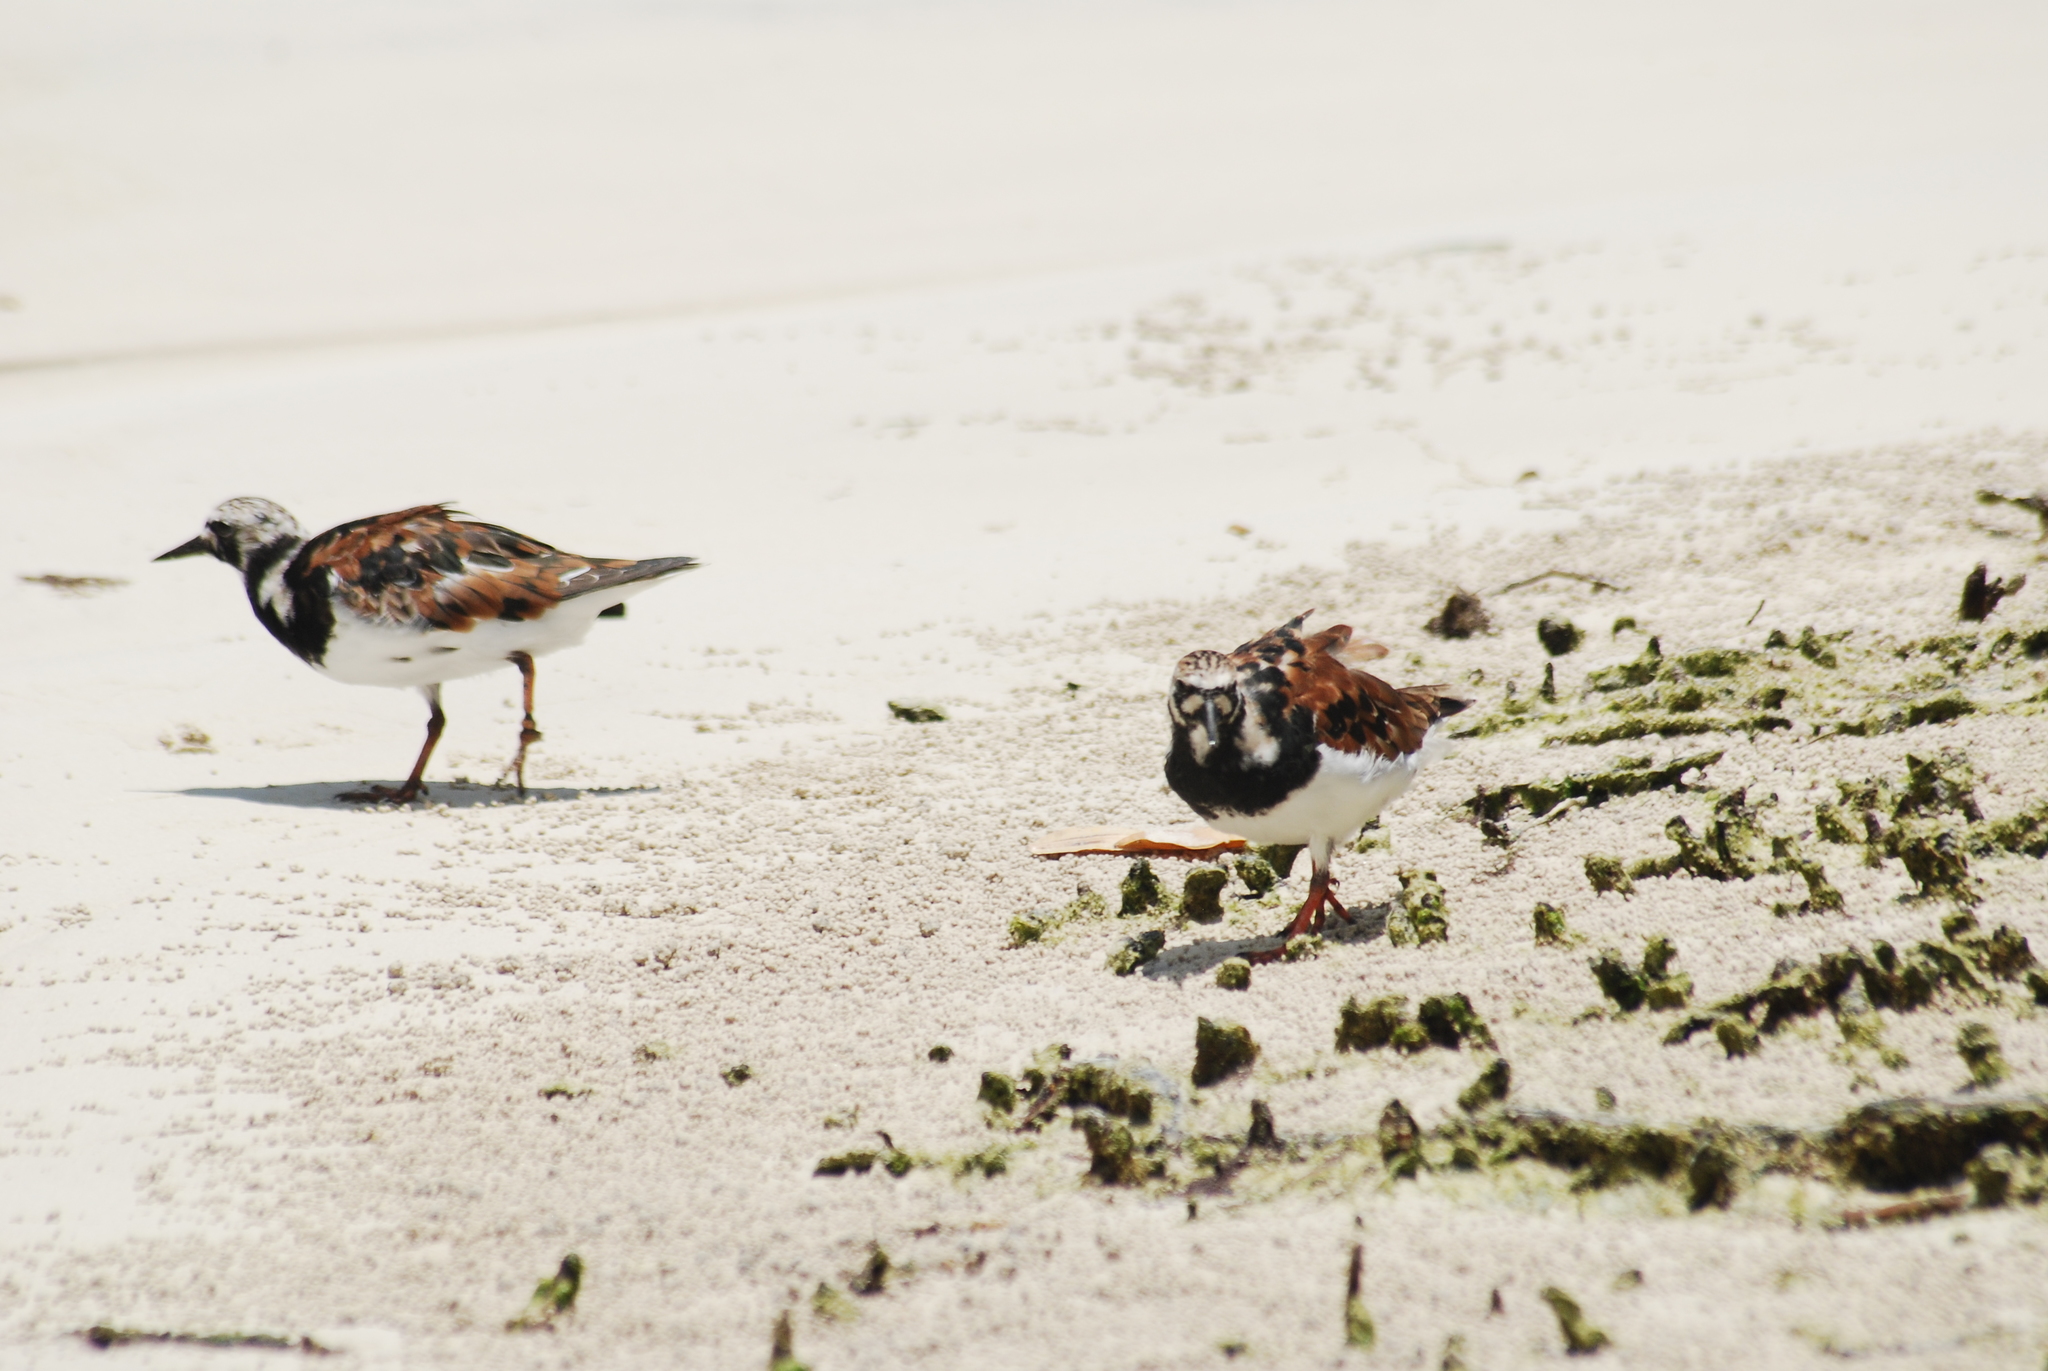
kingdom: Animalia
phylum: Chordata
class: Aves
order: Charadriiformes
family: Scolopacidae
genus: Arenaria
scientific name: Arenaria interpres
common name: Ruddy turnstone
